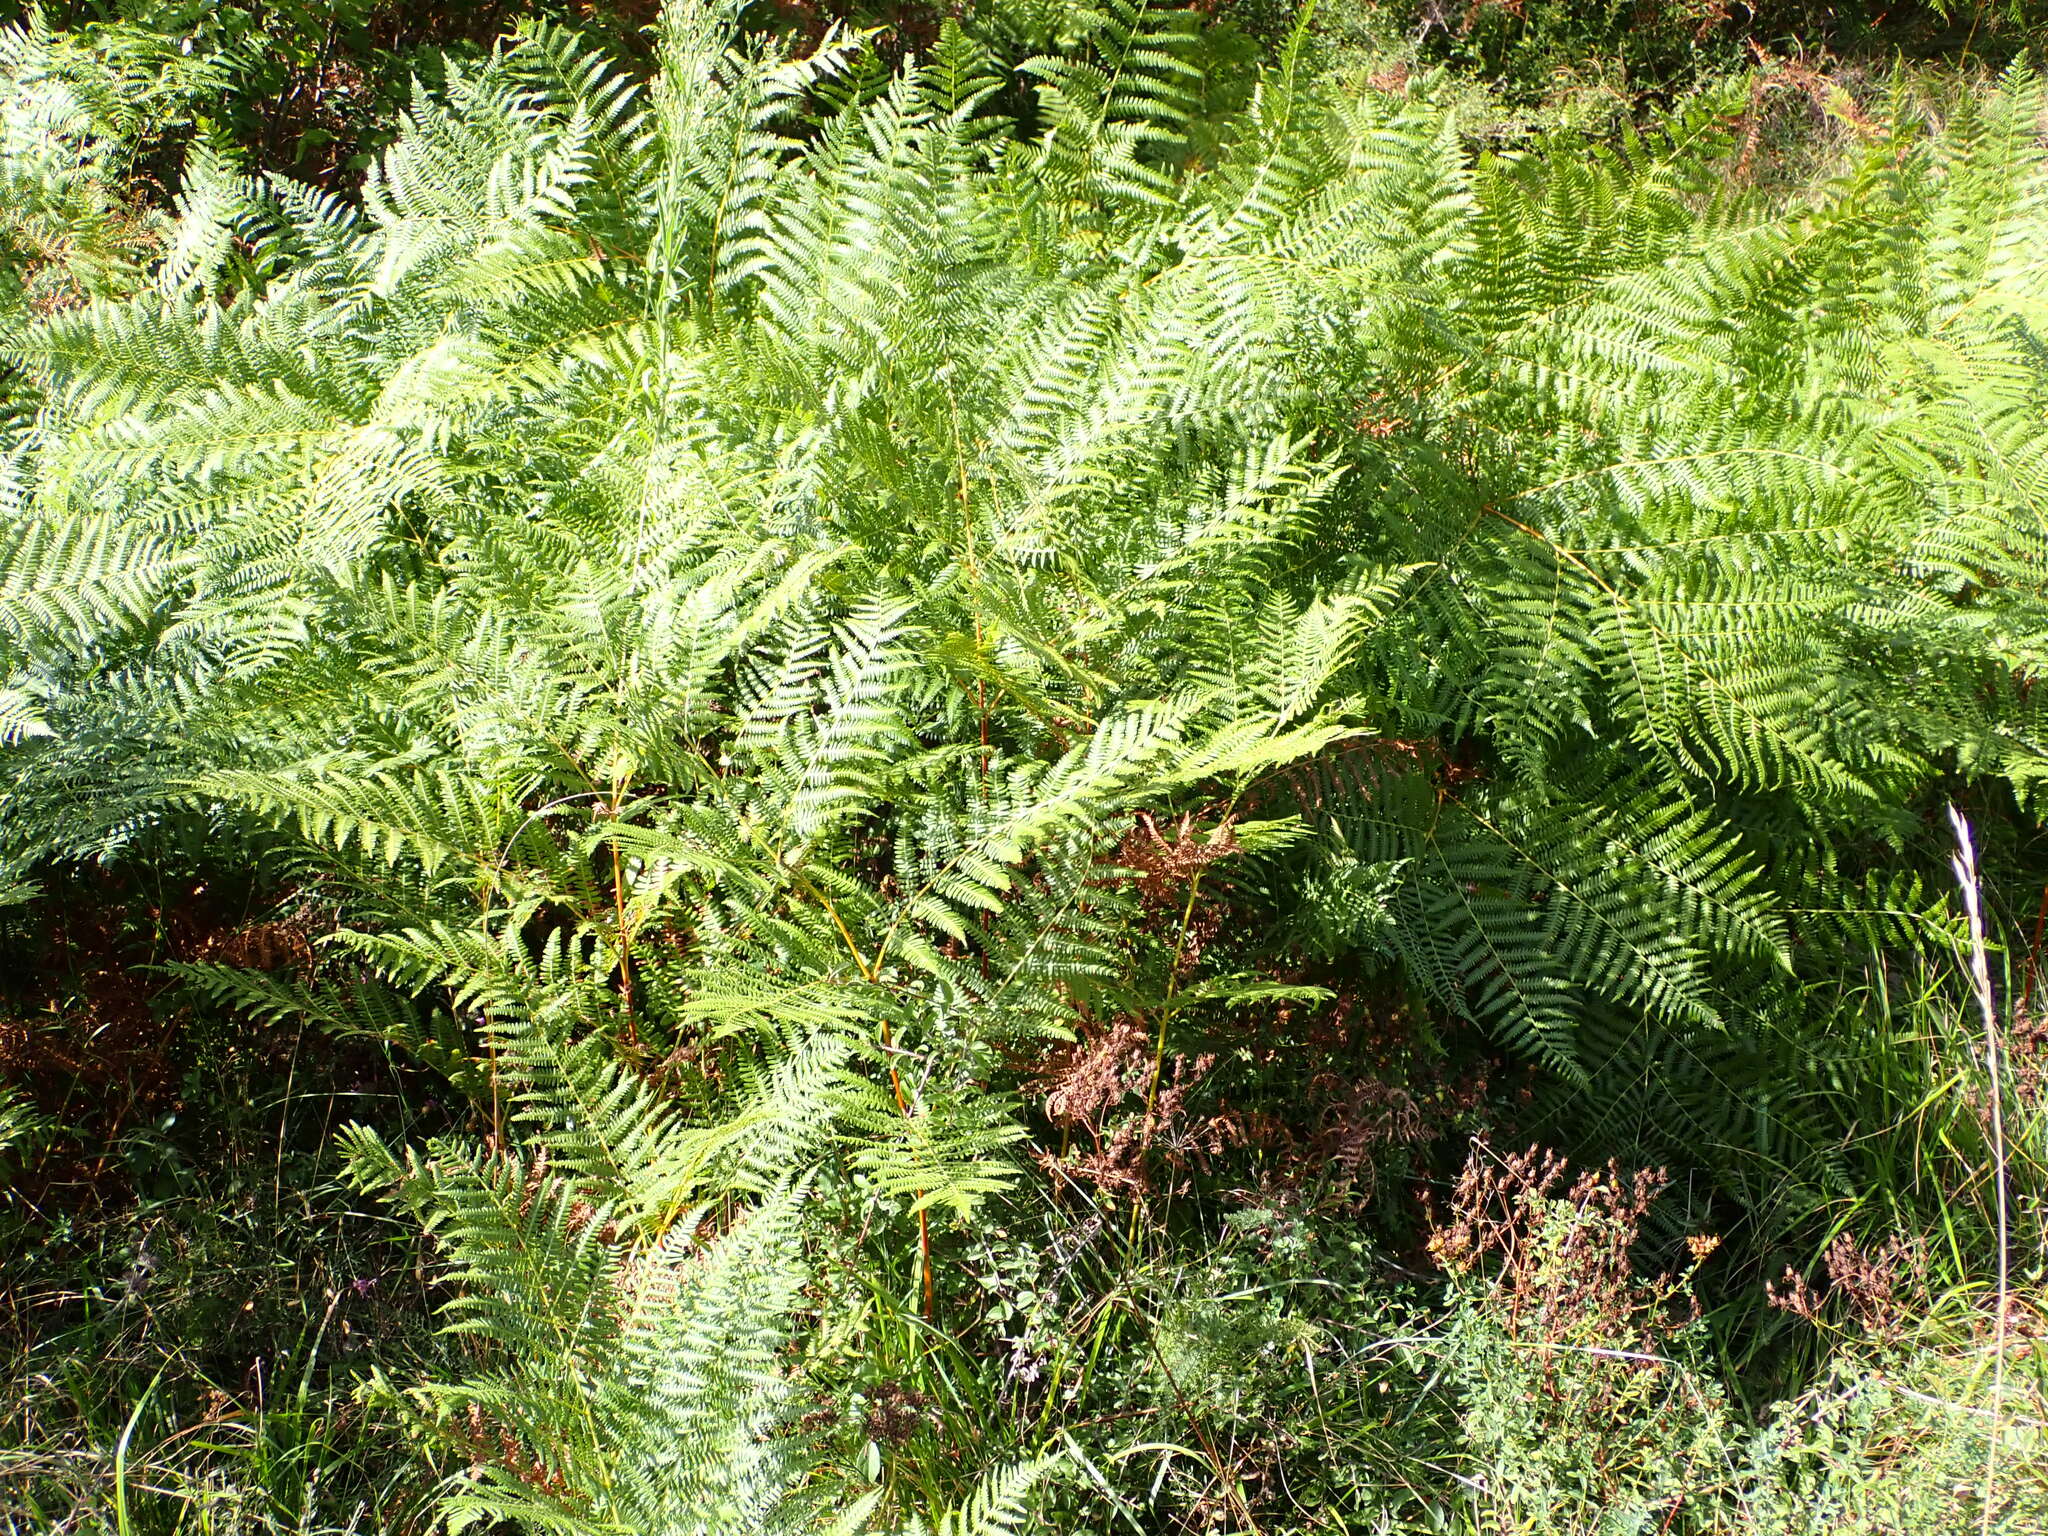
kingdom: Plantae
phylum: Tracheophyta
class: Polypodiopsida
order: Polypodiales
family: Dennstaedtiaceae
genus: Pteridium
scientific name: Pteridium aquilinum
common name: Bracken
